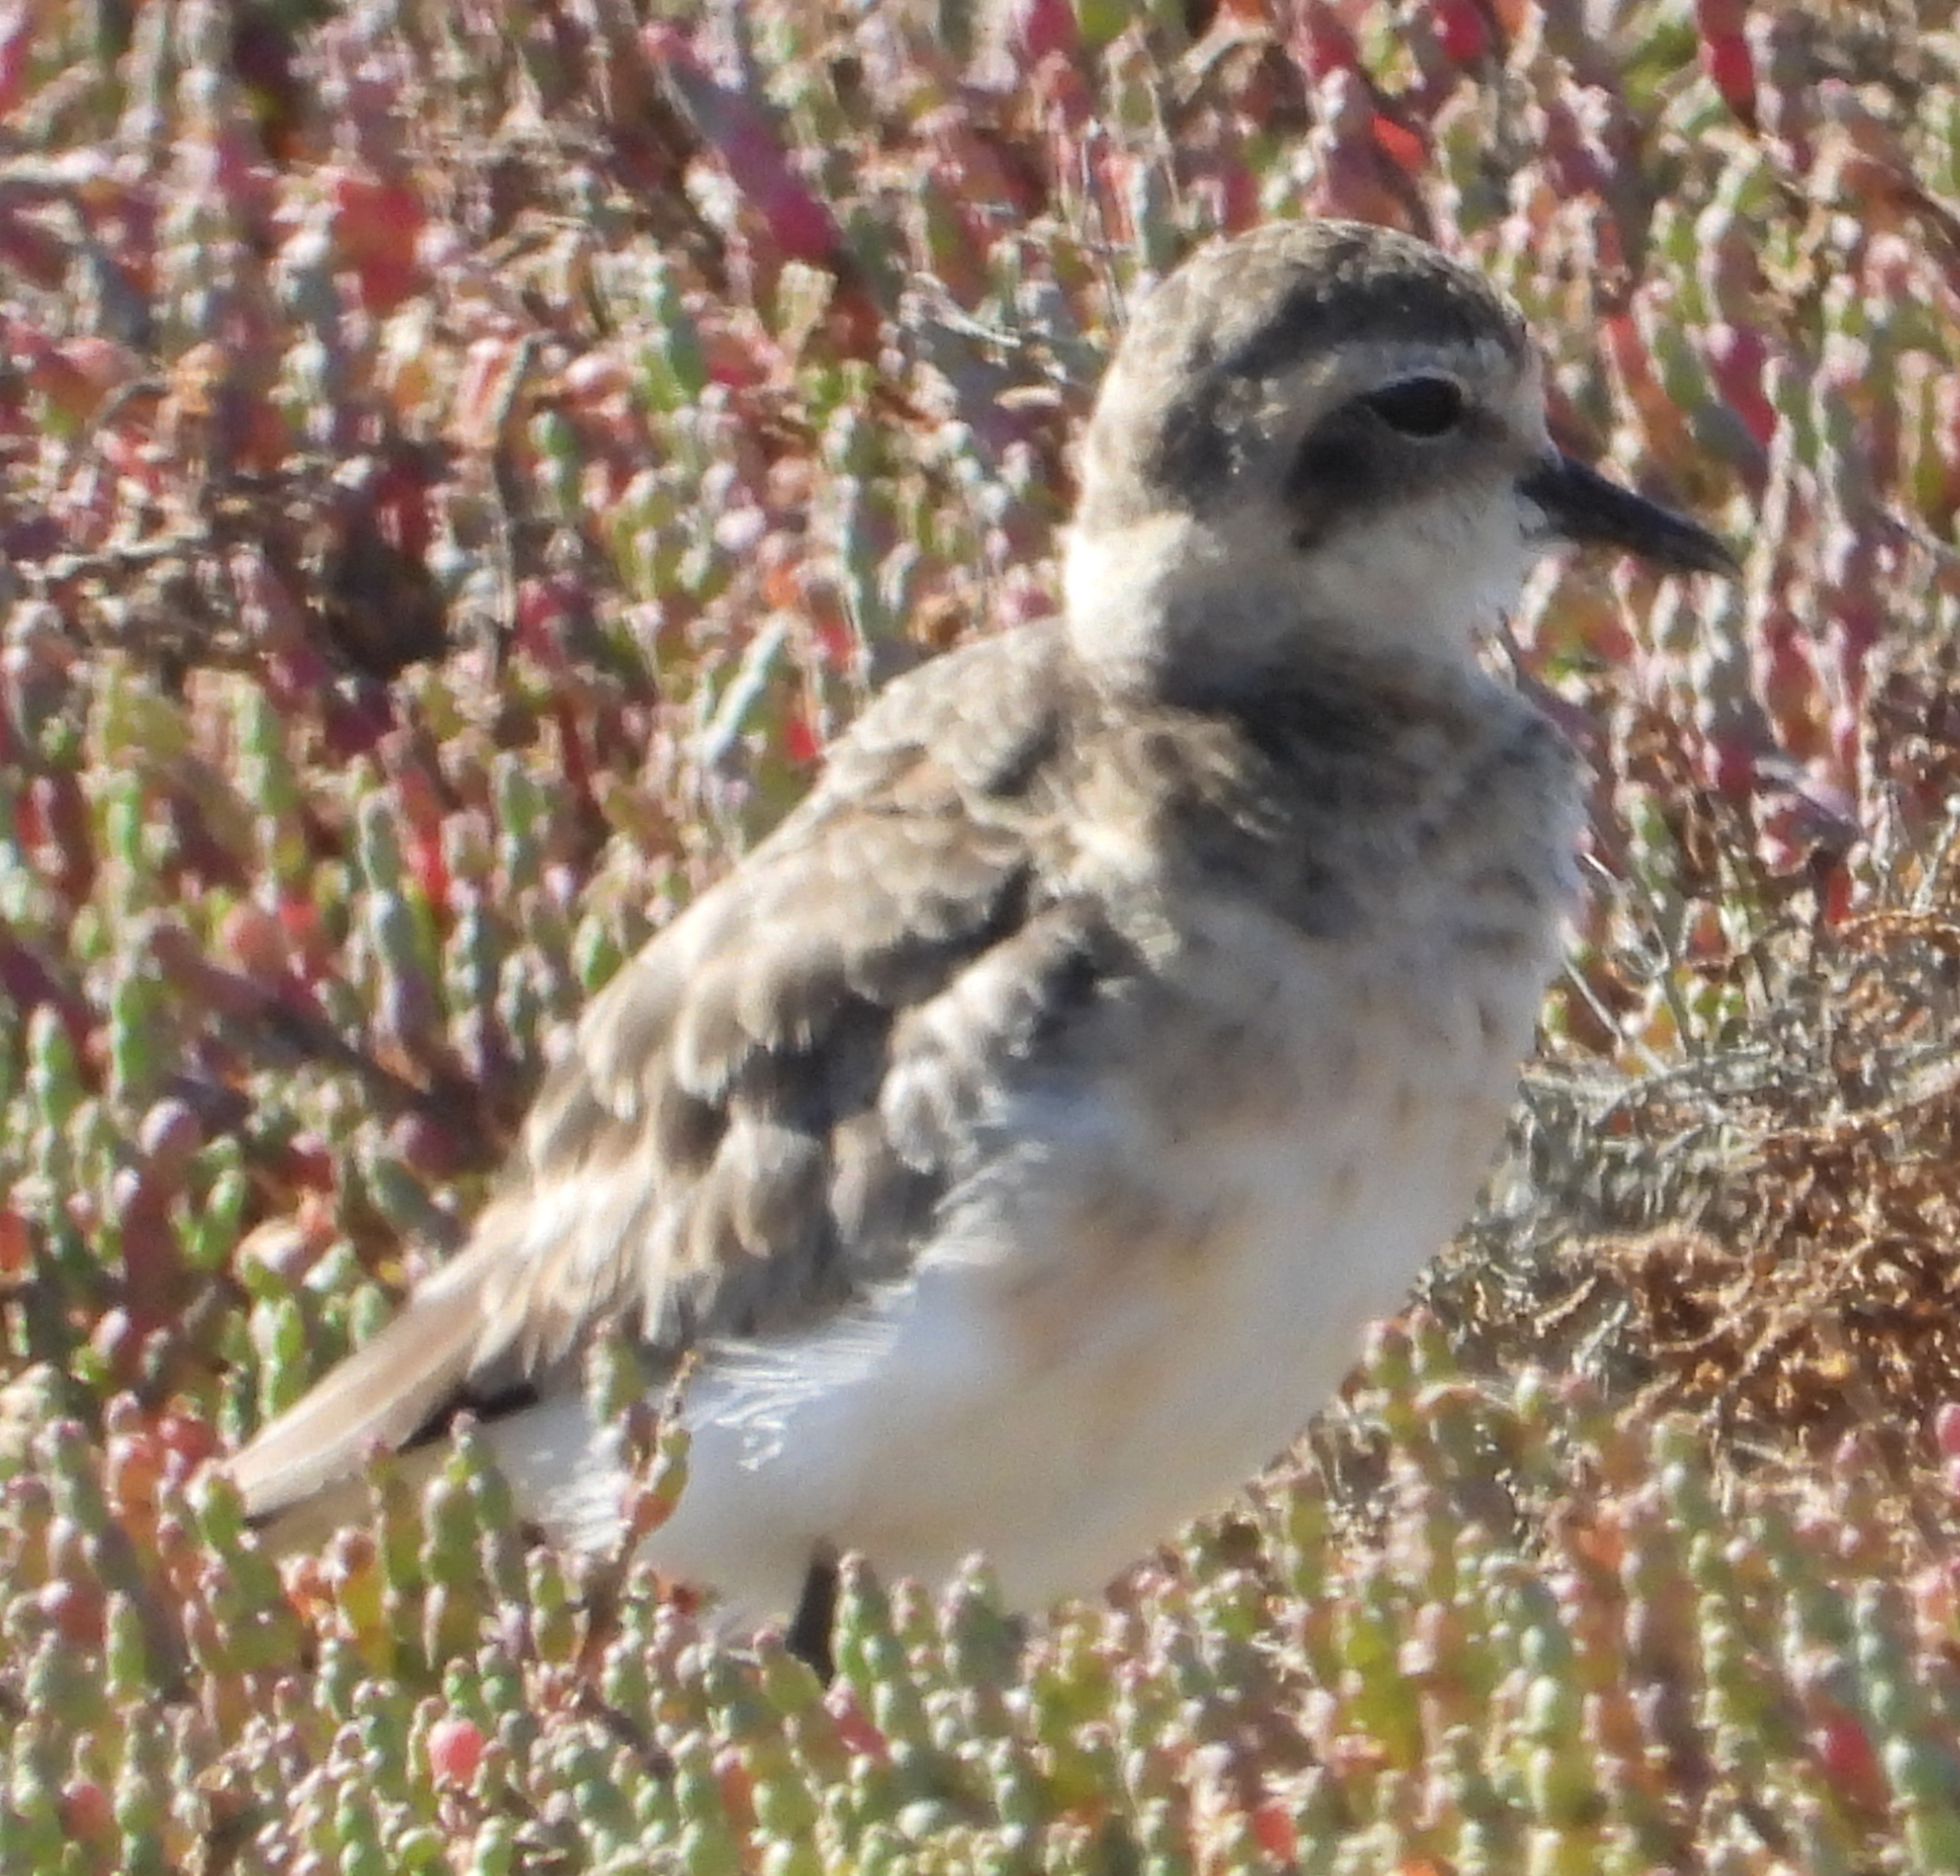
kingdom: Animalia
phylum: Chordata
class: Aves
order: Charadriiformes
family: Charadriidae
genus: Anarhynchus
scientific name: Anarhynchus
